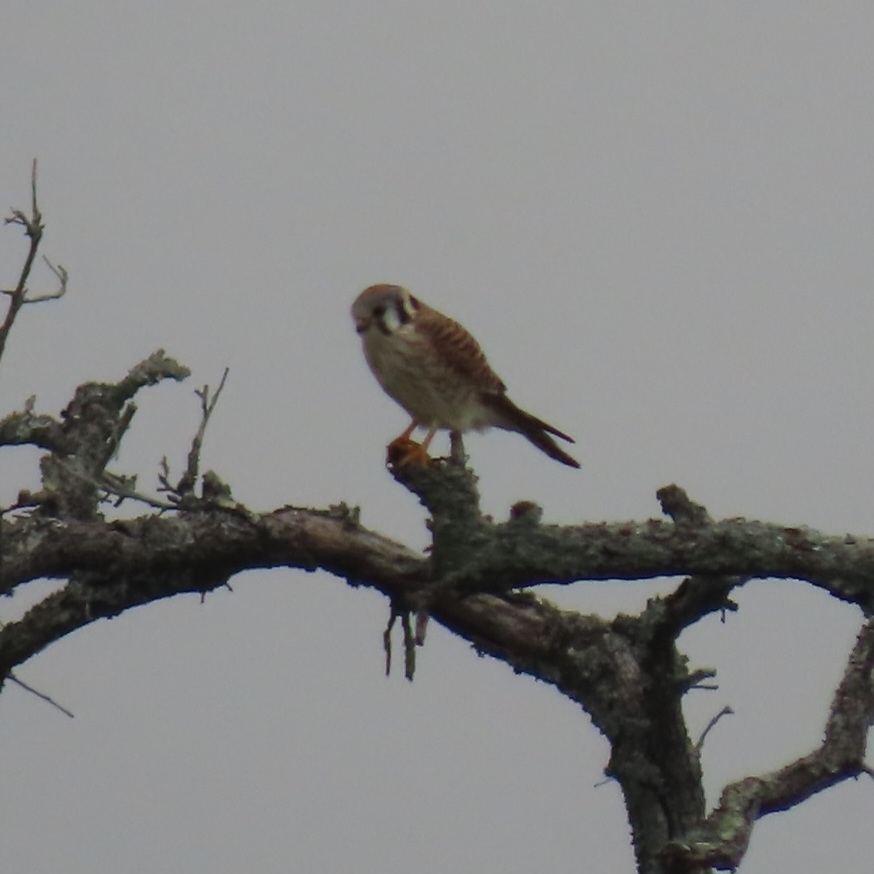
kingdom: Animalia
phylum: Chordata
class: Aves
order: Falconiformes
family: Falconidae
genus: Falco
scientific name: Falco sparverius
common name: American kestrel
